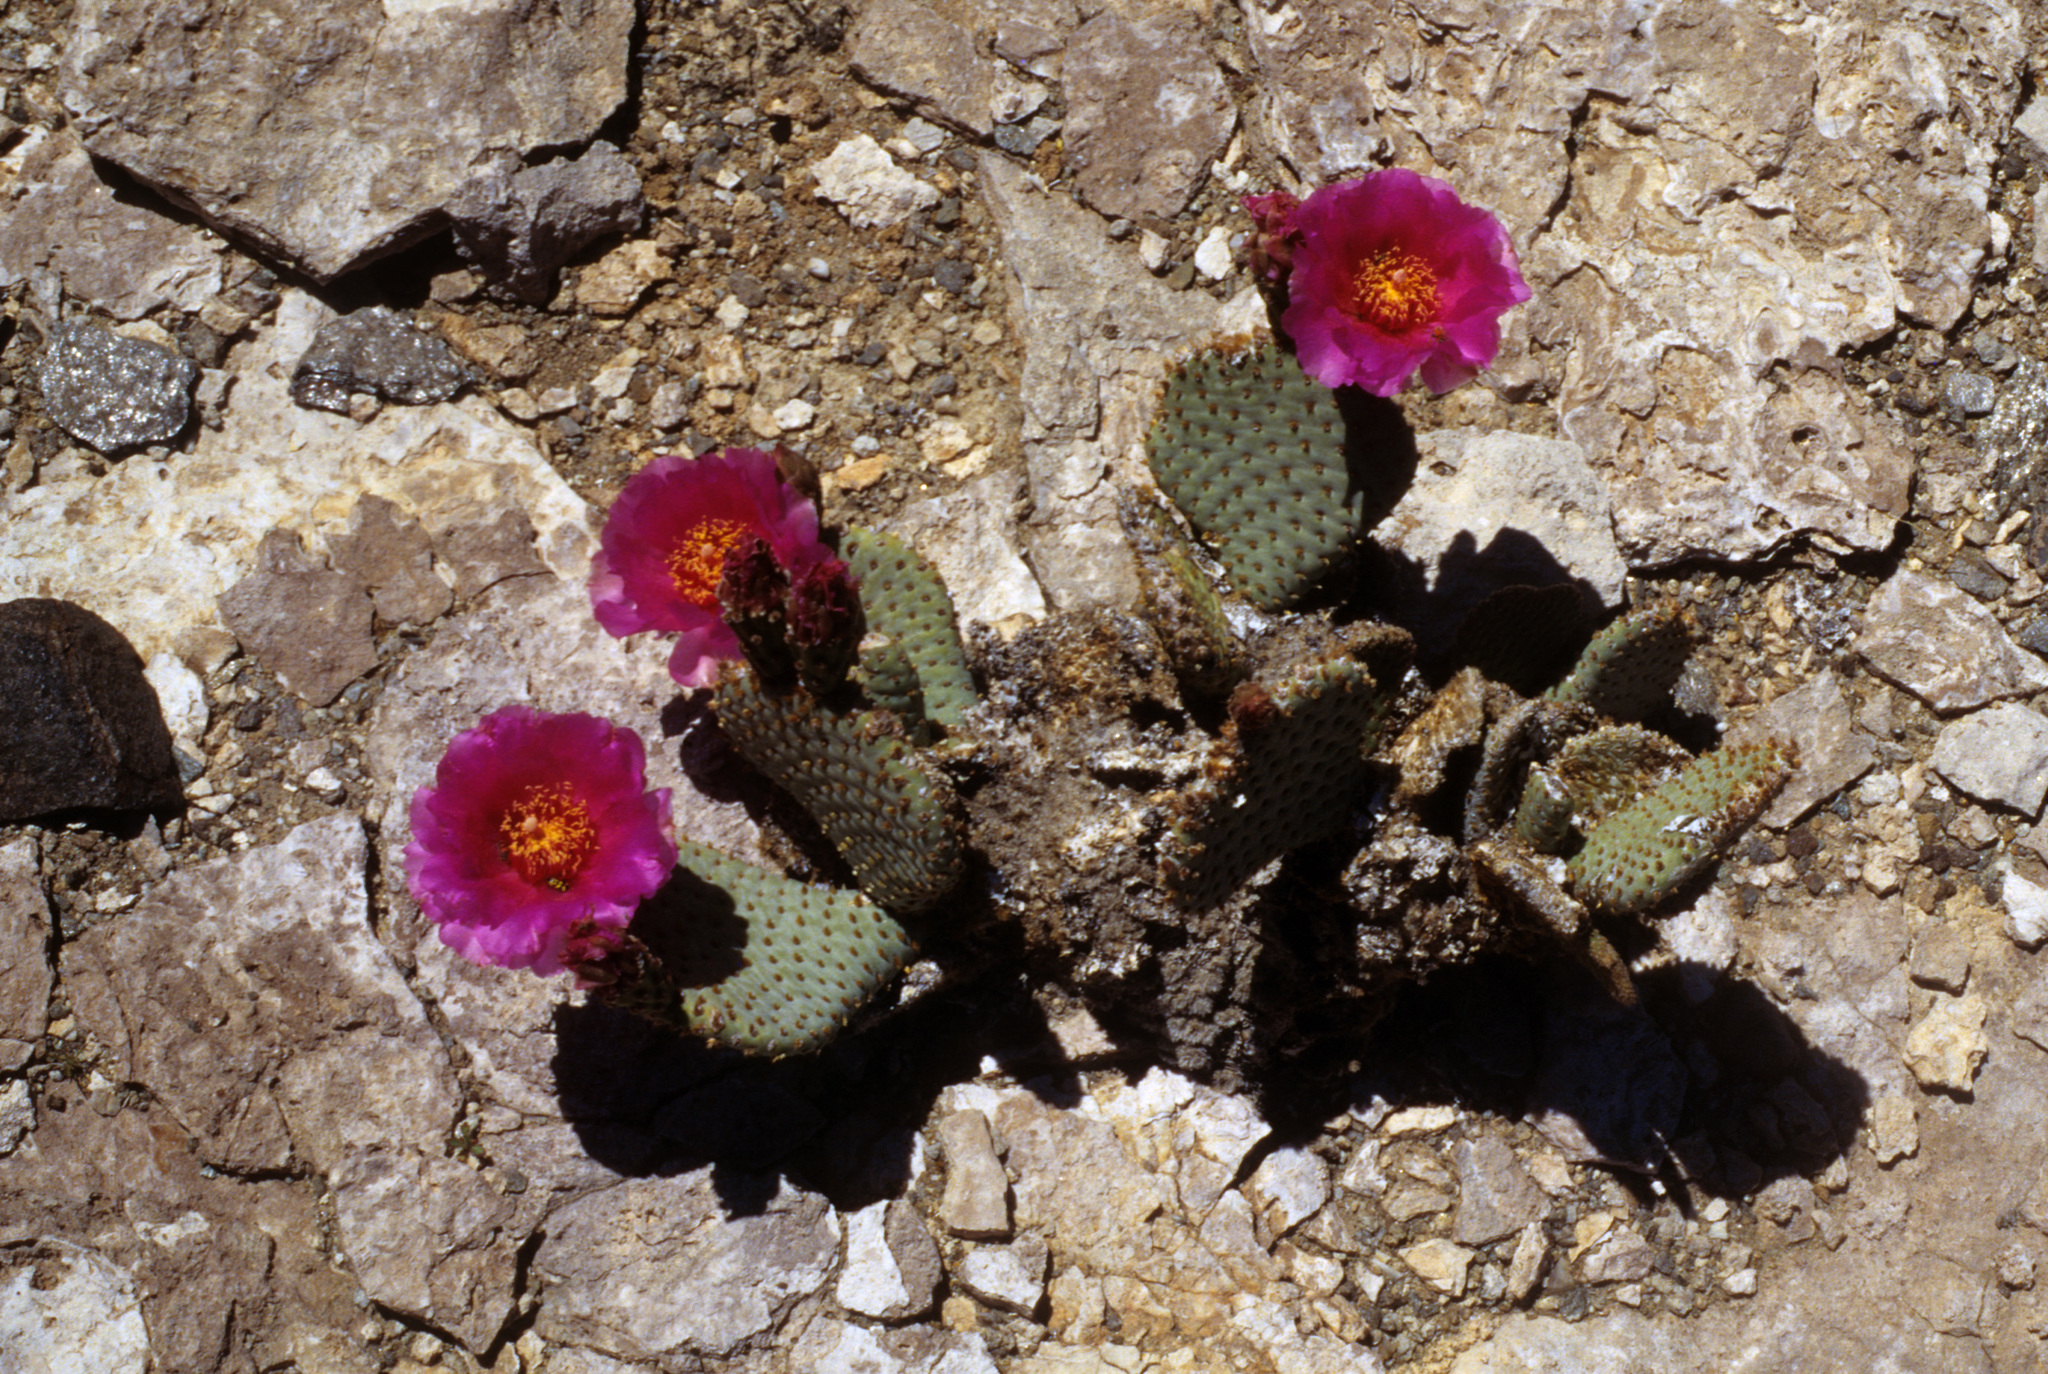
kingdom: Plantae
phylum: Tracheophyta
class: Magnoliopsida
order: Caryophyllales
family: Cactaceae
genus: Opuntia
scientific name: Opuntia basilaris
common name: Beavertail prickly-pear
